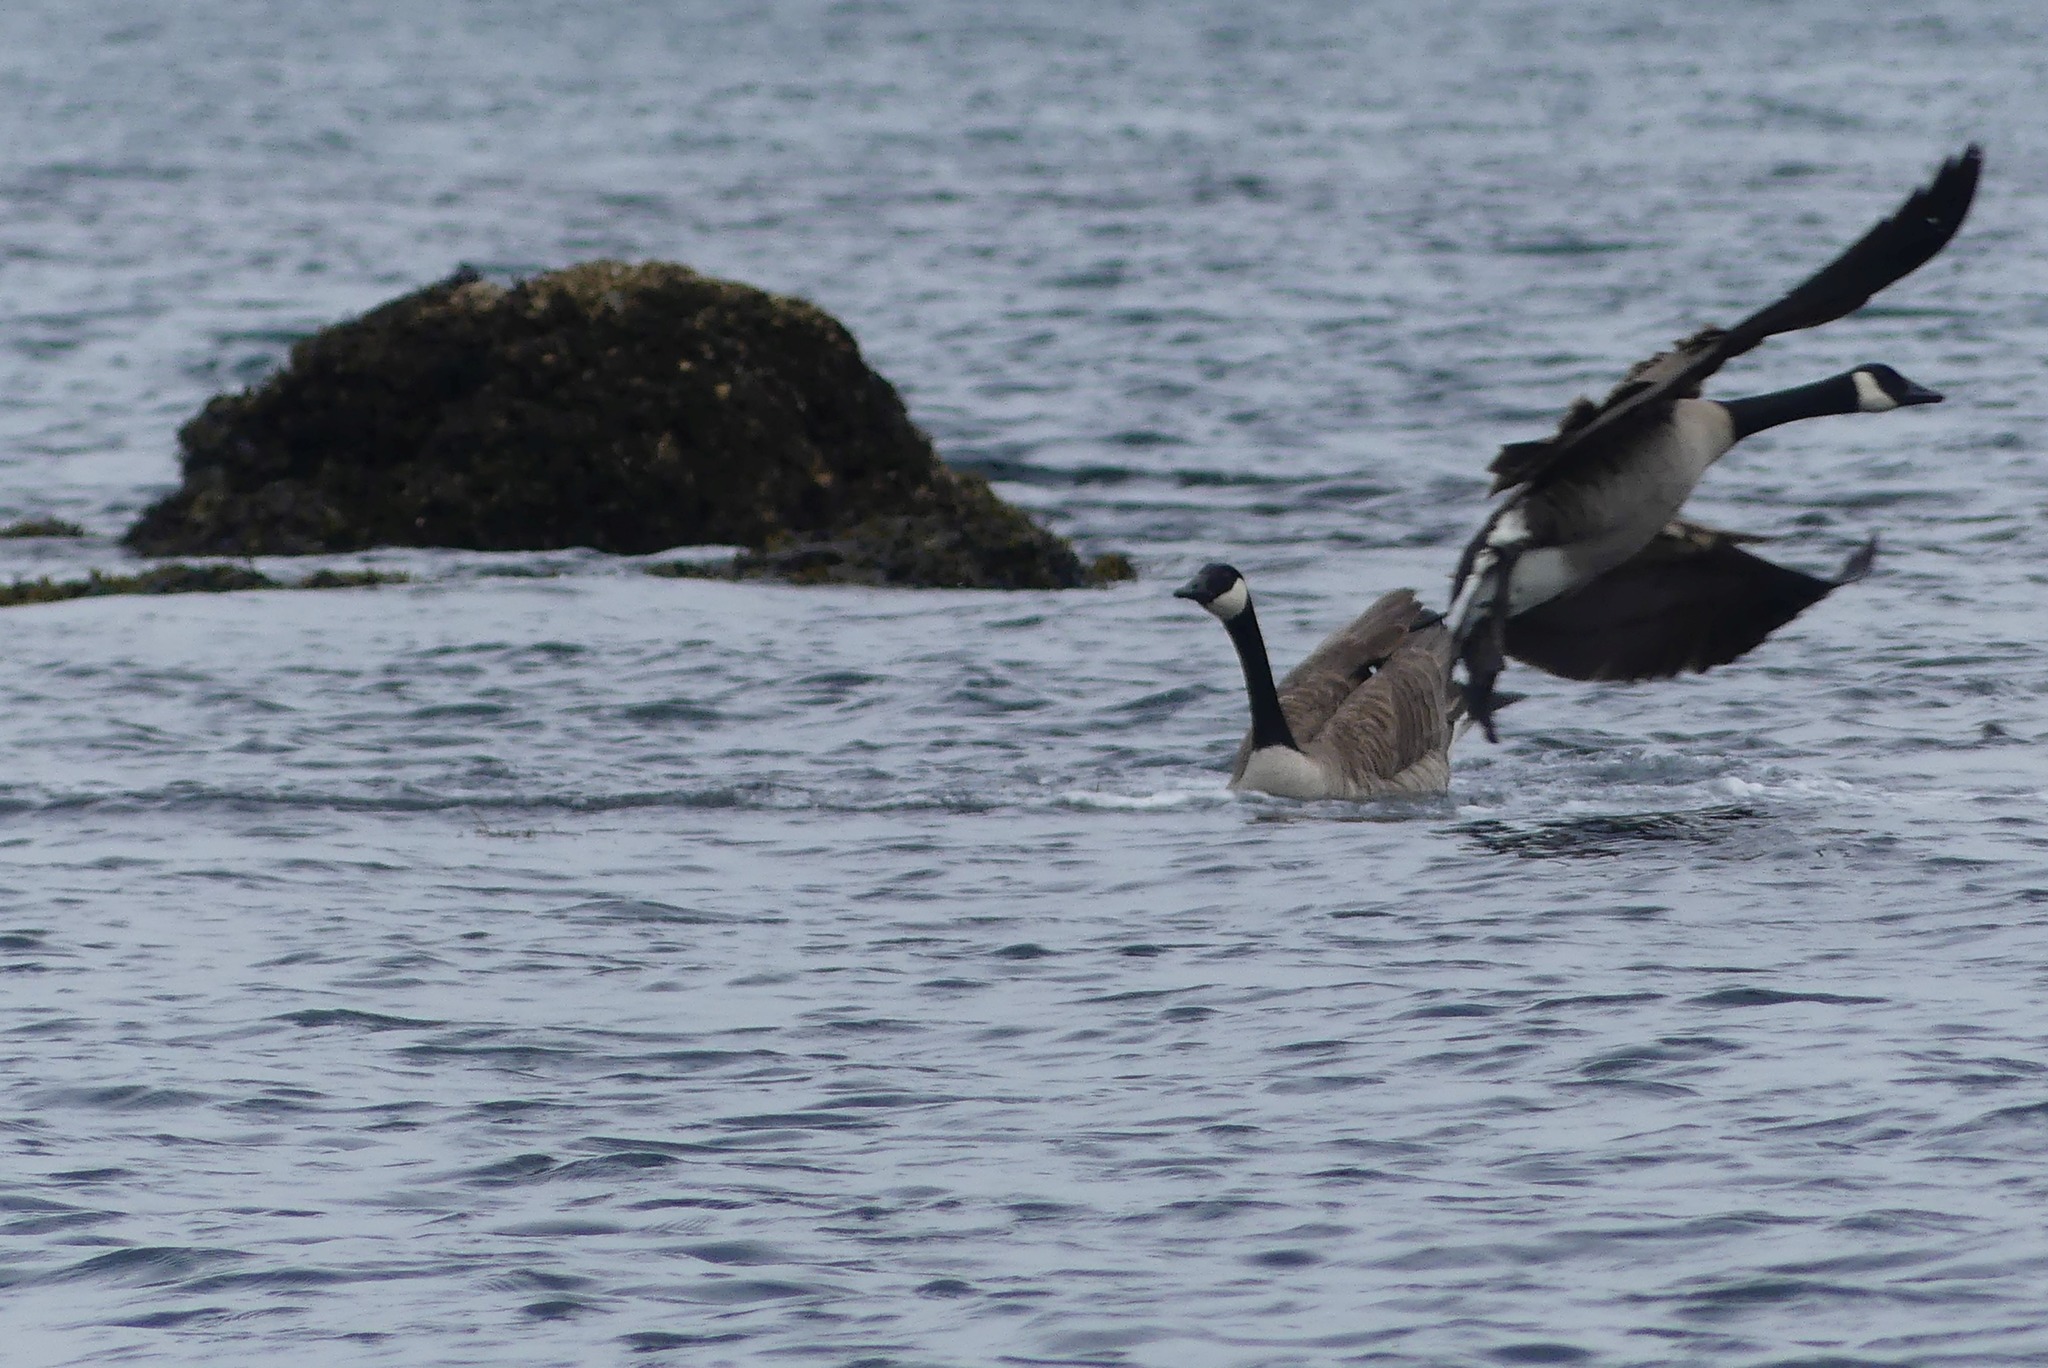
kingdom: Animalia
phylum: Chordata
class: Aves
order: Anseriformes
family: Anatidae
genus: Branta
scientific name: Branta canadensis
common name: Canada goose
